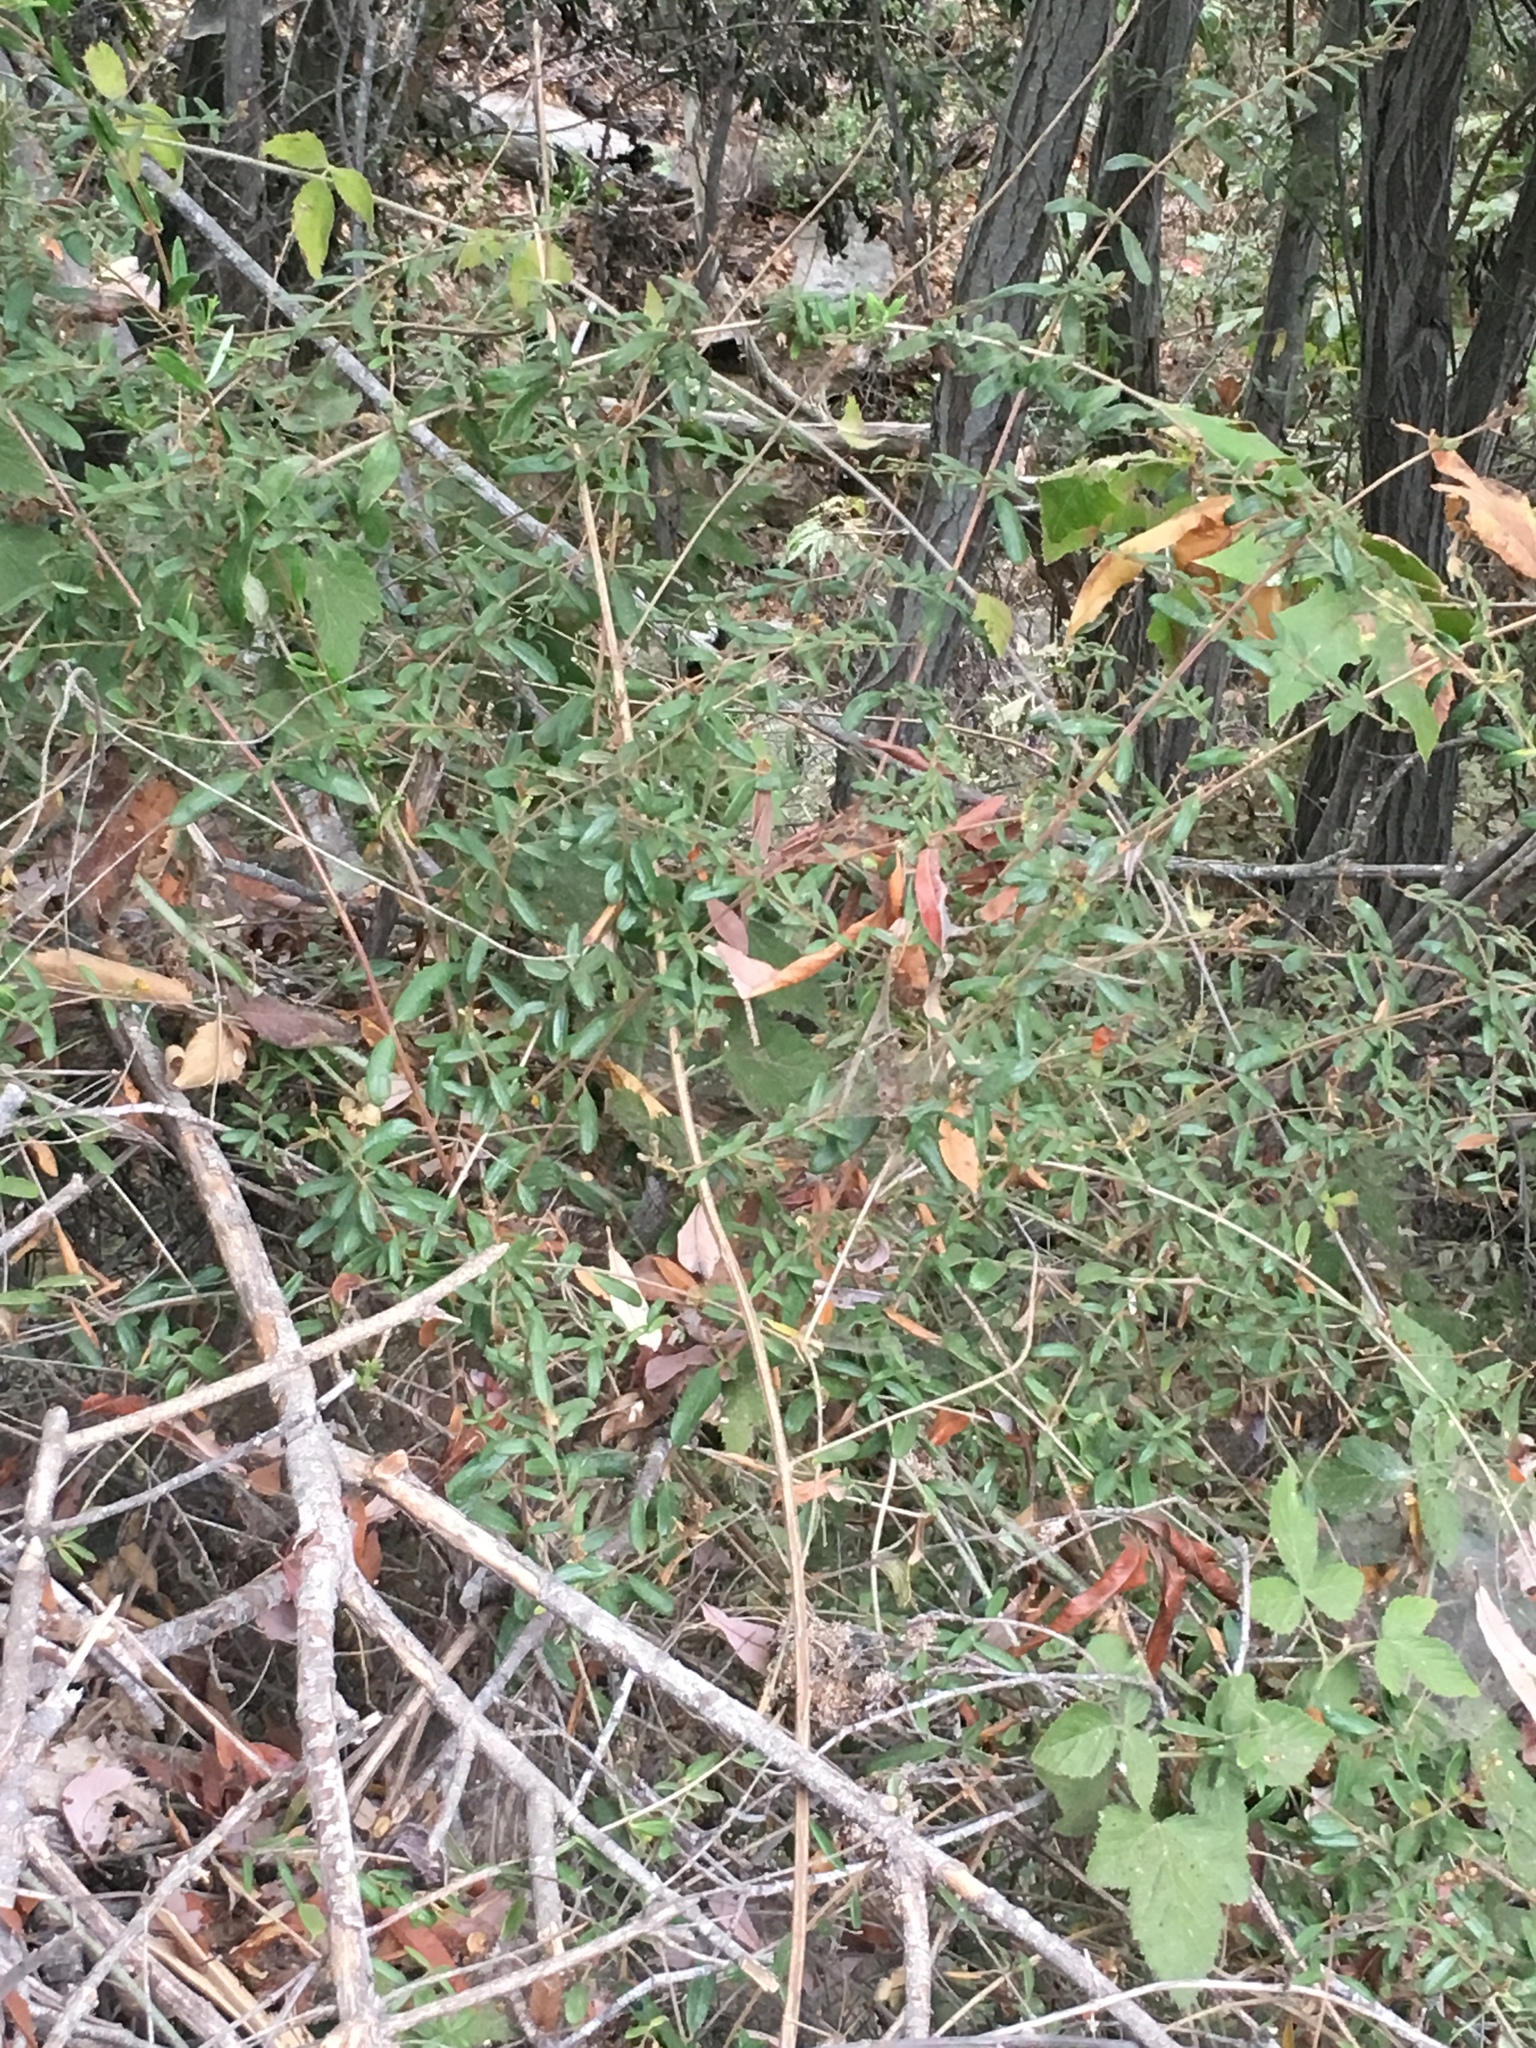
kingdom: Plantae
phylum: Tracheophyta
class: Magnoliopsida
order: Dipsacales
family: Caprifoliaceae
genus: Lonicera
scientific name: Lonicera subspicata
